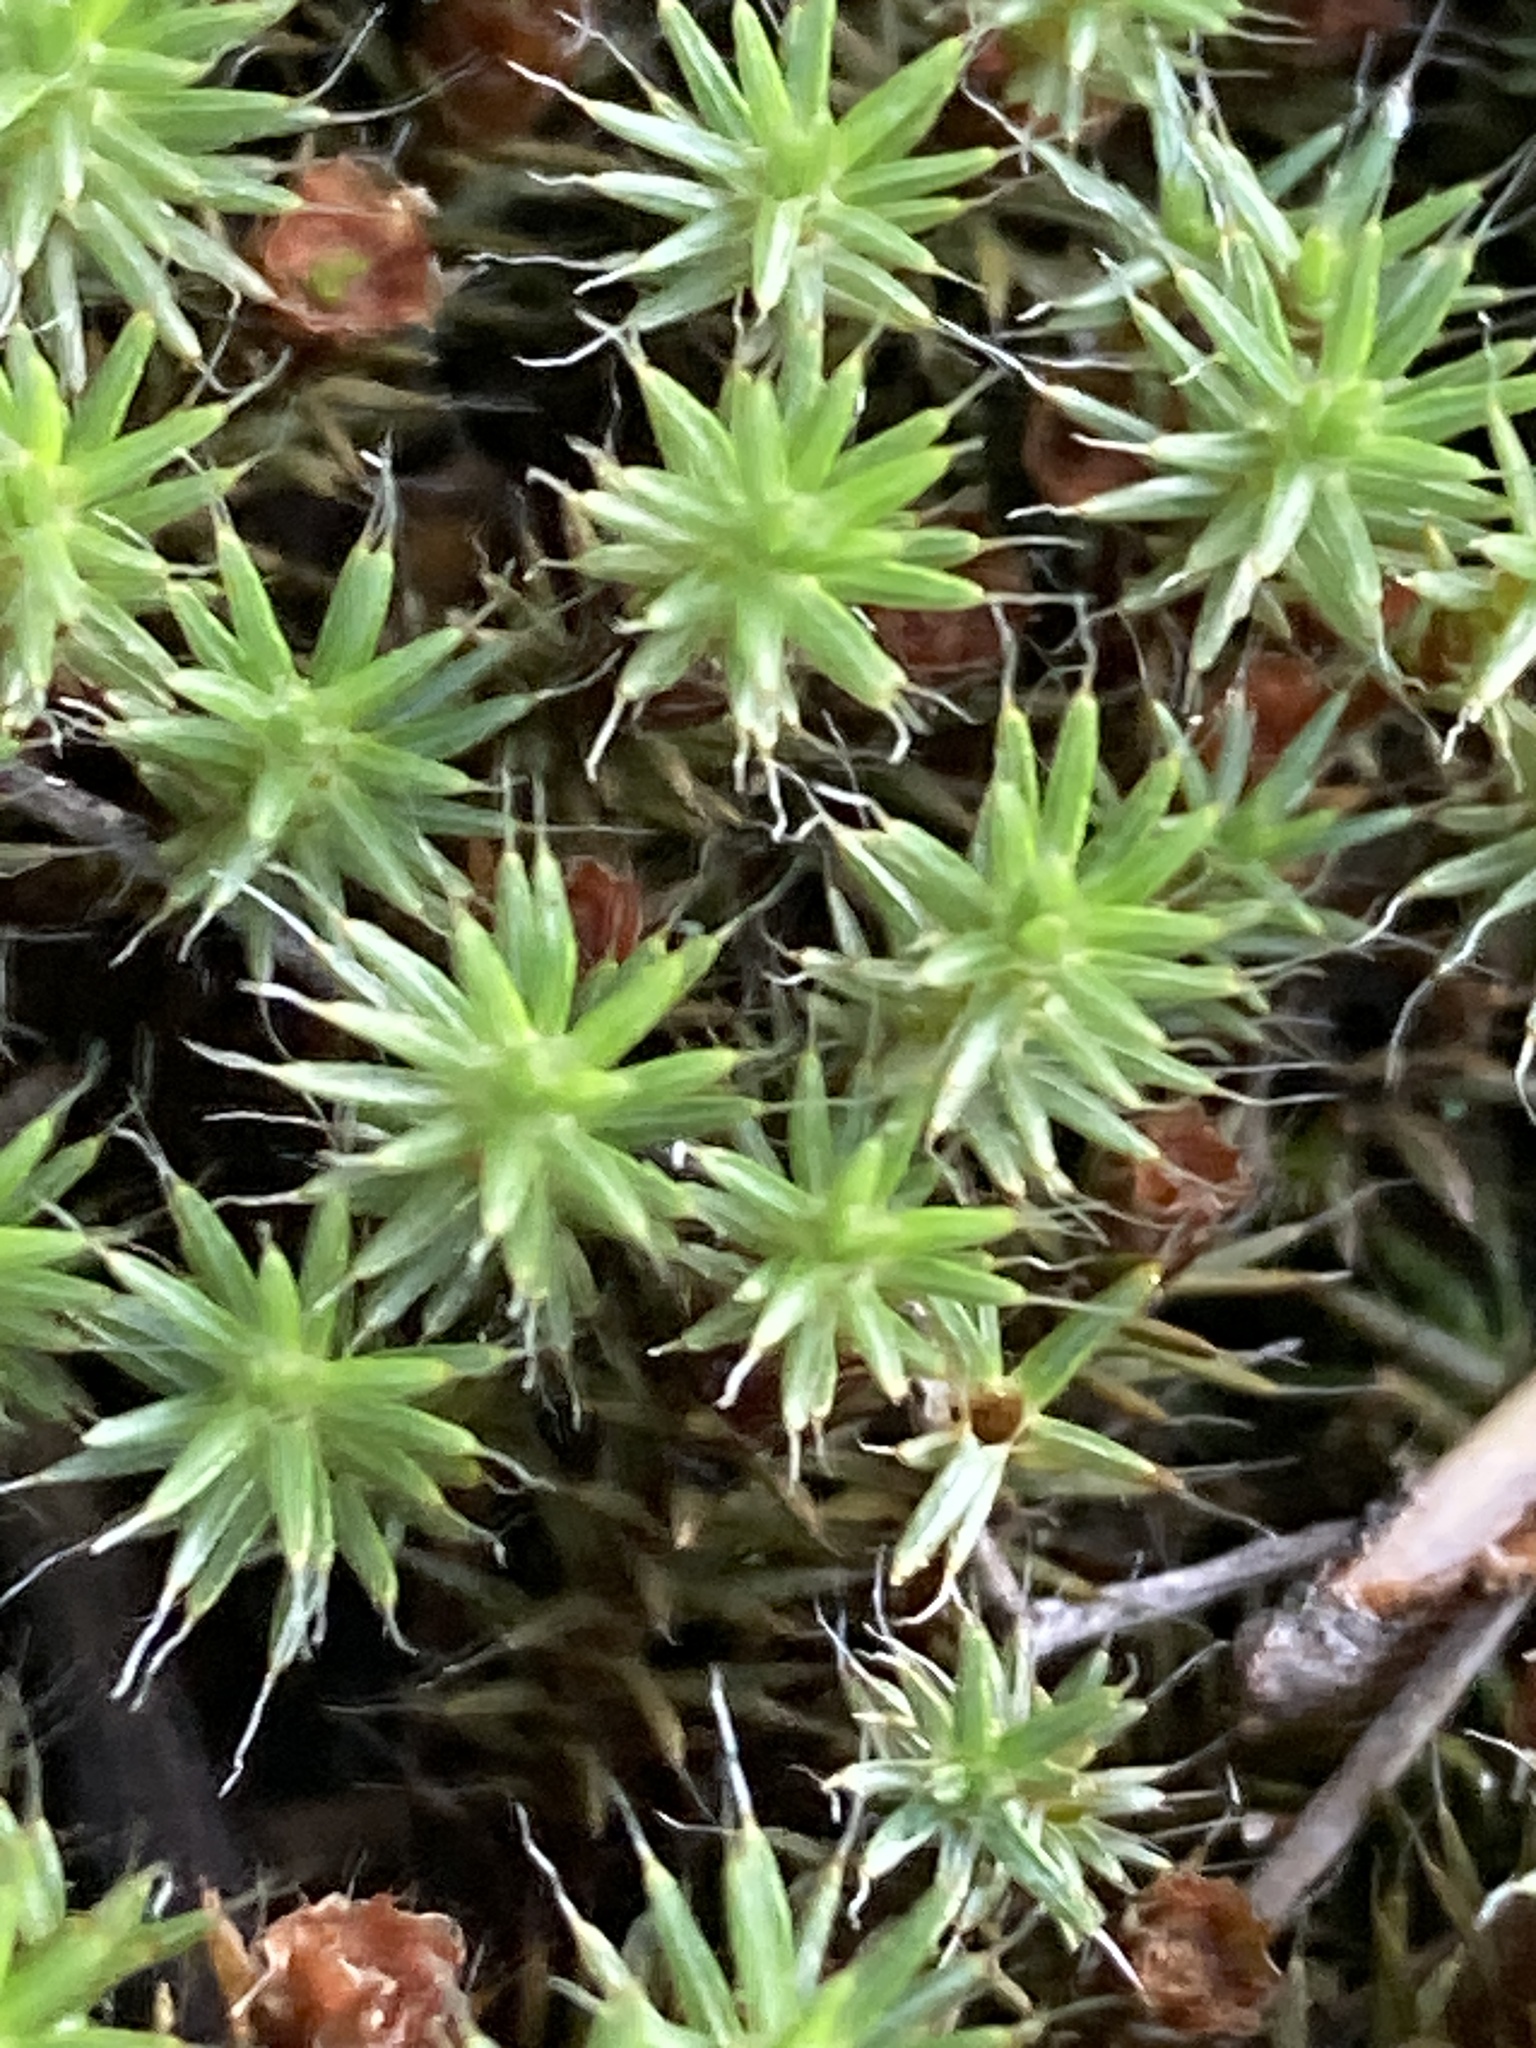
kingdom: Plantae
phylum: Bryophyta
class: Polytrichopsida
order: Polytrichales
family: Polytrichaceae
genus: Polytrichum
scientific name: Polytrichum piliferum
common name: Bristly haircap
